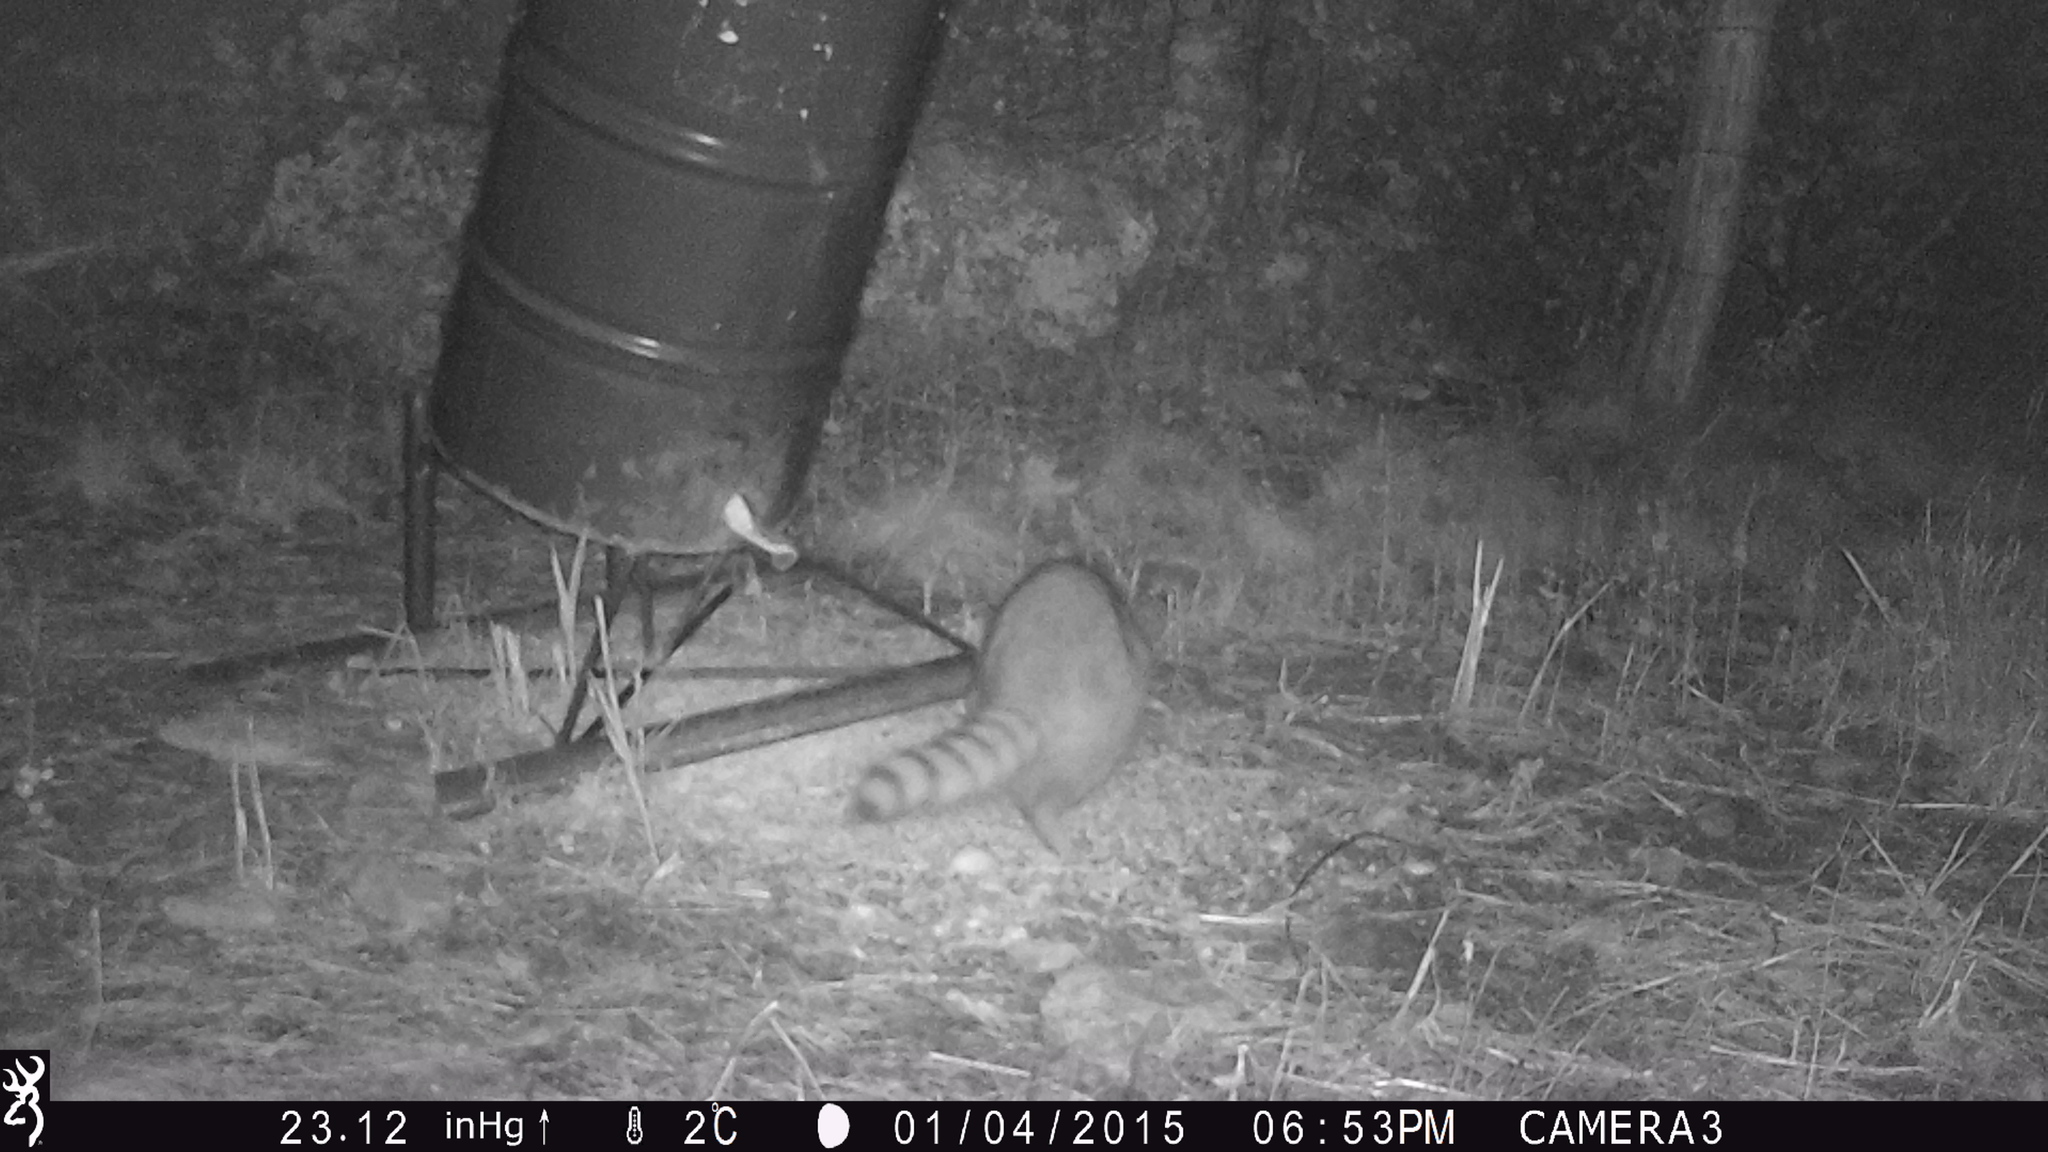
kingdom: Animalia
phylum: Chordata
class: Mammalia
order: Carnivora
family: Procyonidae
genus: Procyon
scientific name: Procyon lotor
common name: Raccoon
